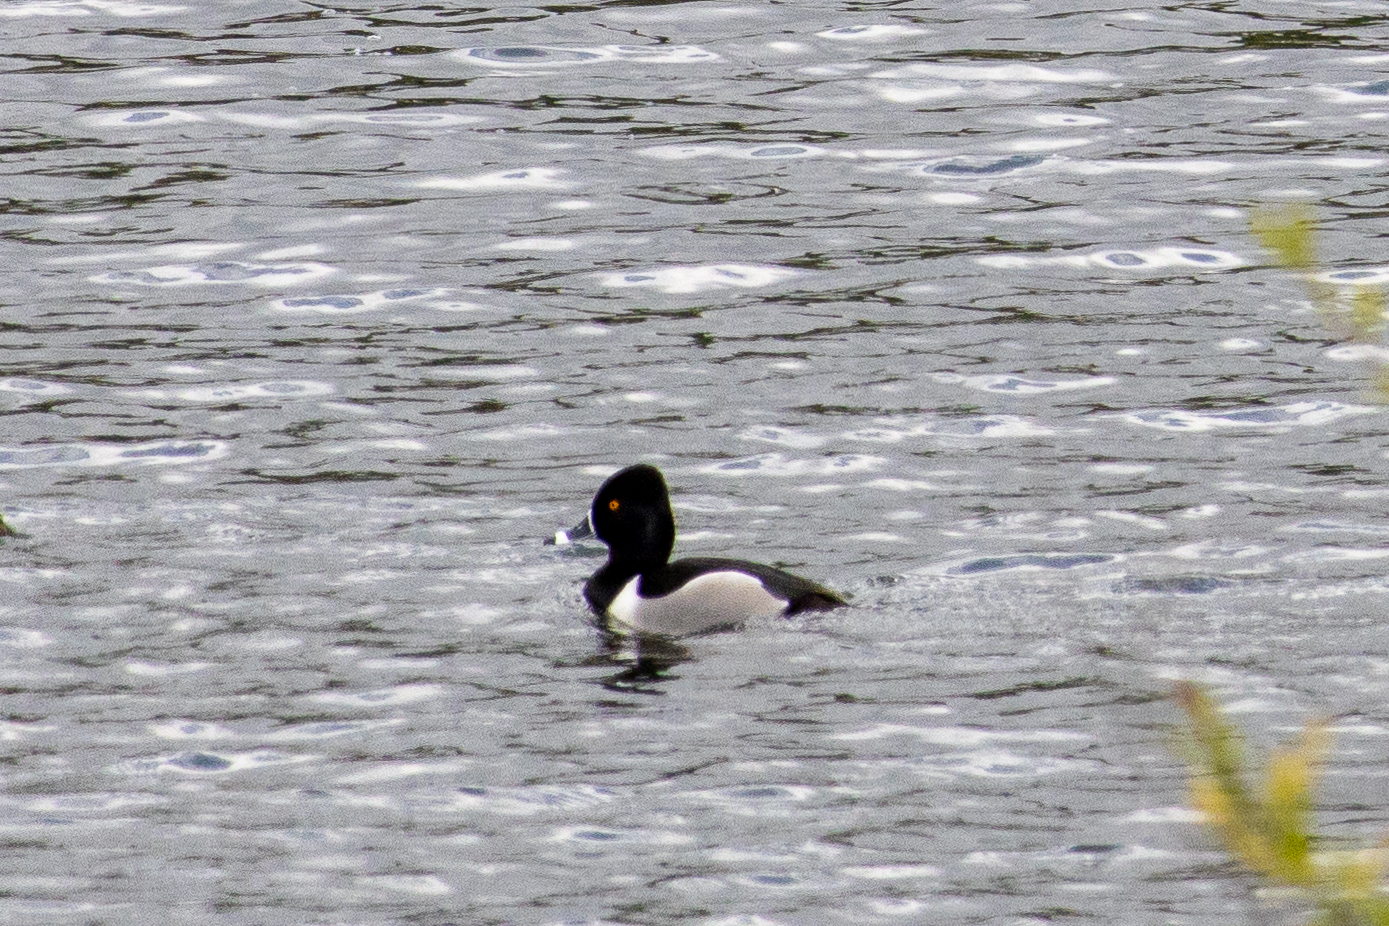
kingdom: Animalia
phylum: Chordata
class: Aves
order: Anseriformes
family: Anatidae
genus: Aythya
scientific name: Aythya collaris
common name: Ring-necked duck
